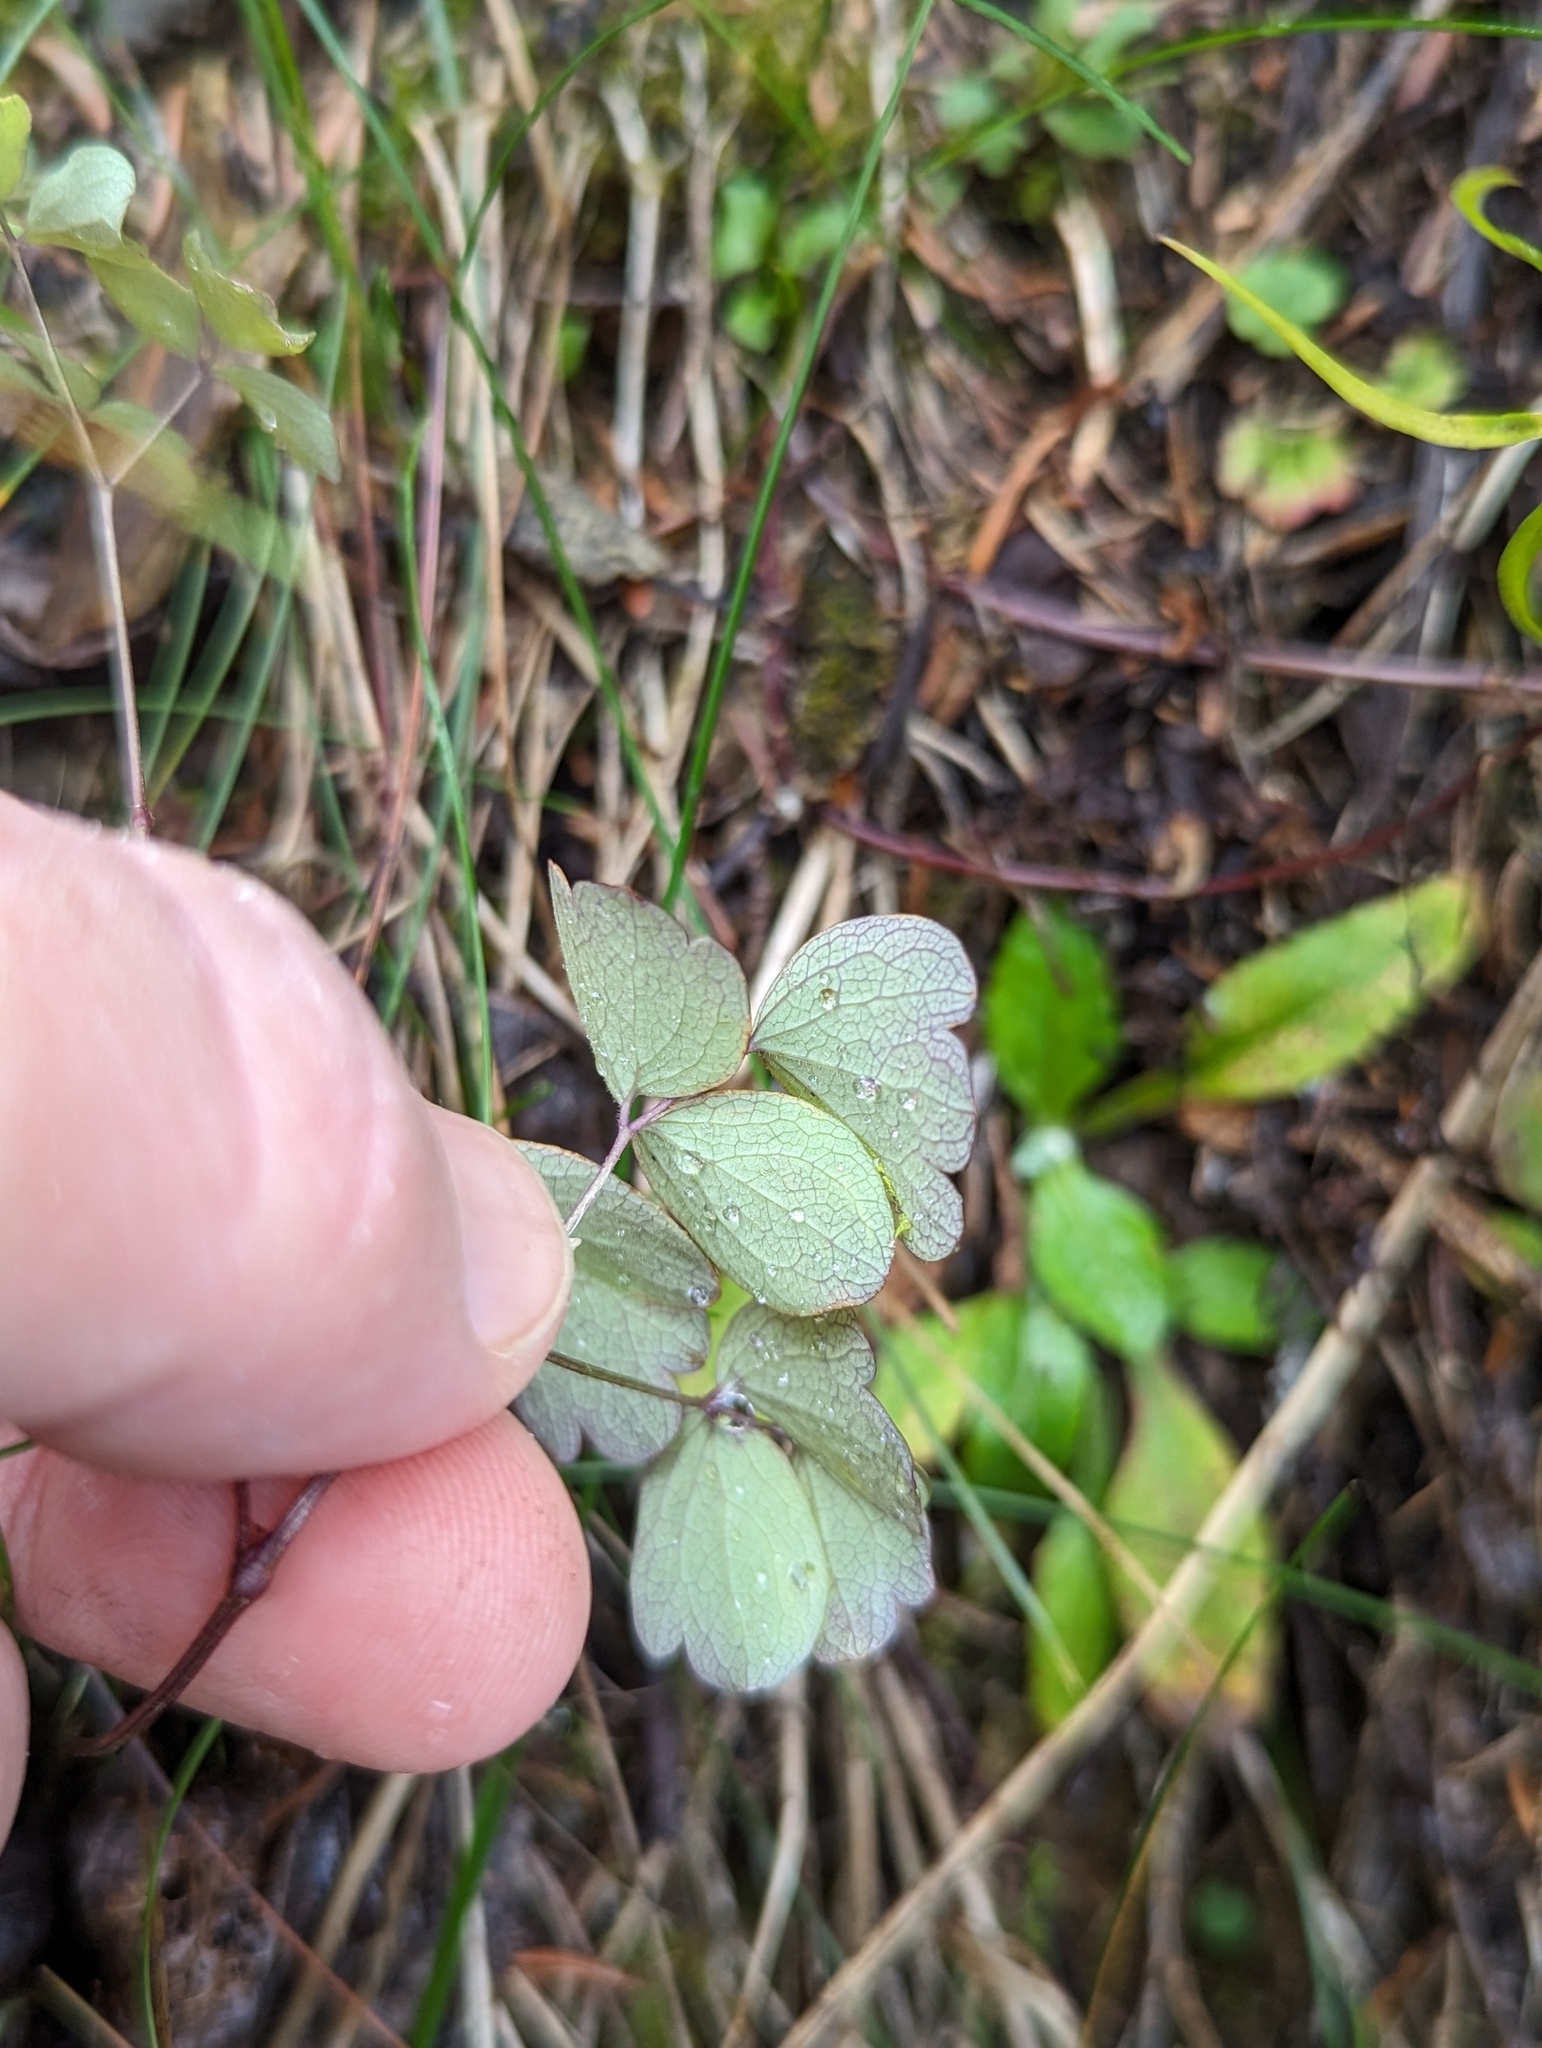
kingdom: Plantae
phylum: Tracheophyta
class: Magnoliopsida
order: Ranunculales
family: Ranunculaceae
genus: Thalictrum
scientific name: Thalictrum pubescens
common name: King-of-the-meadow
